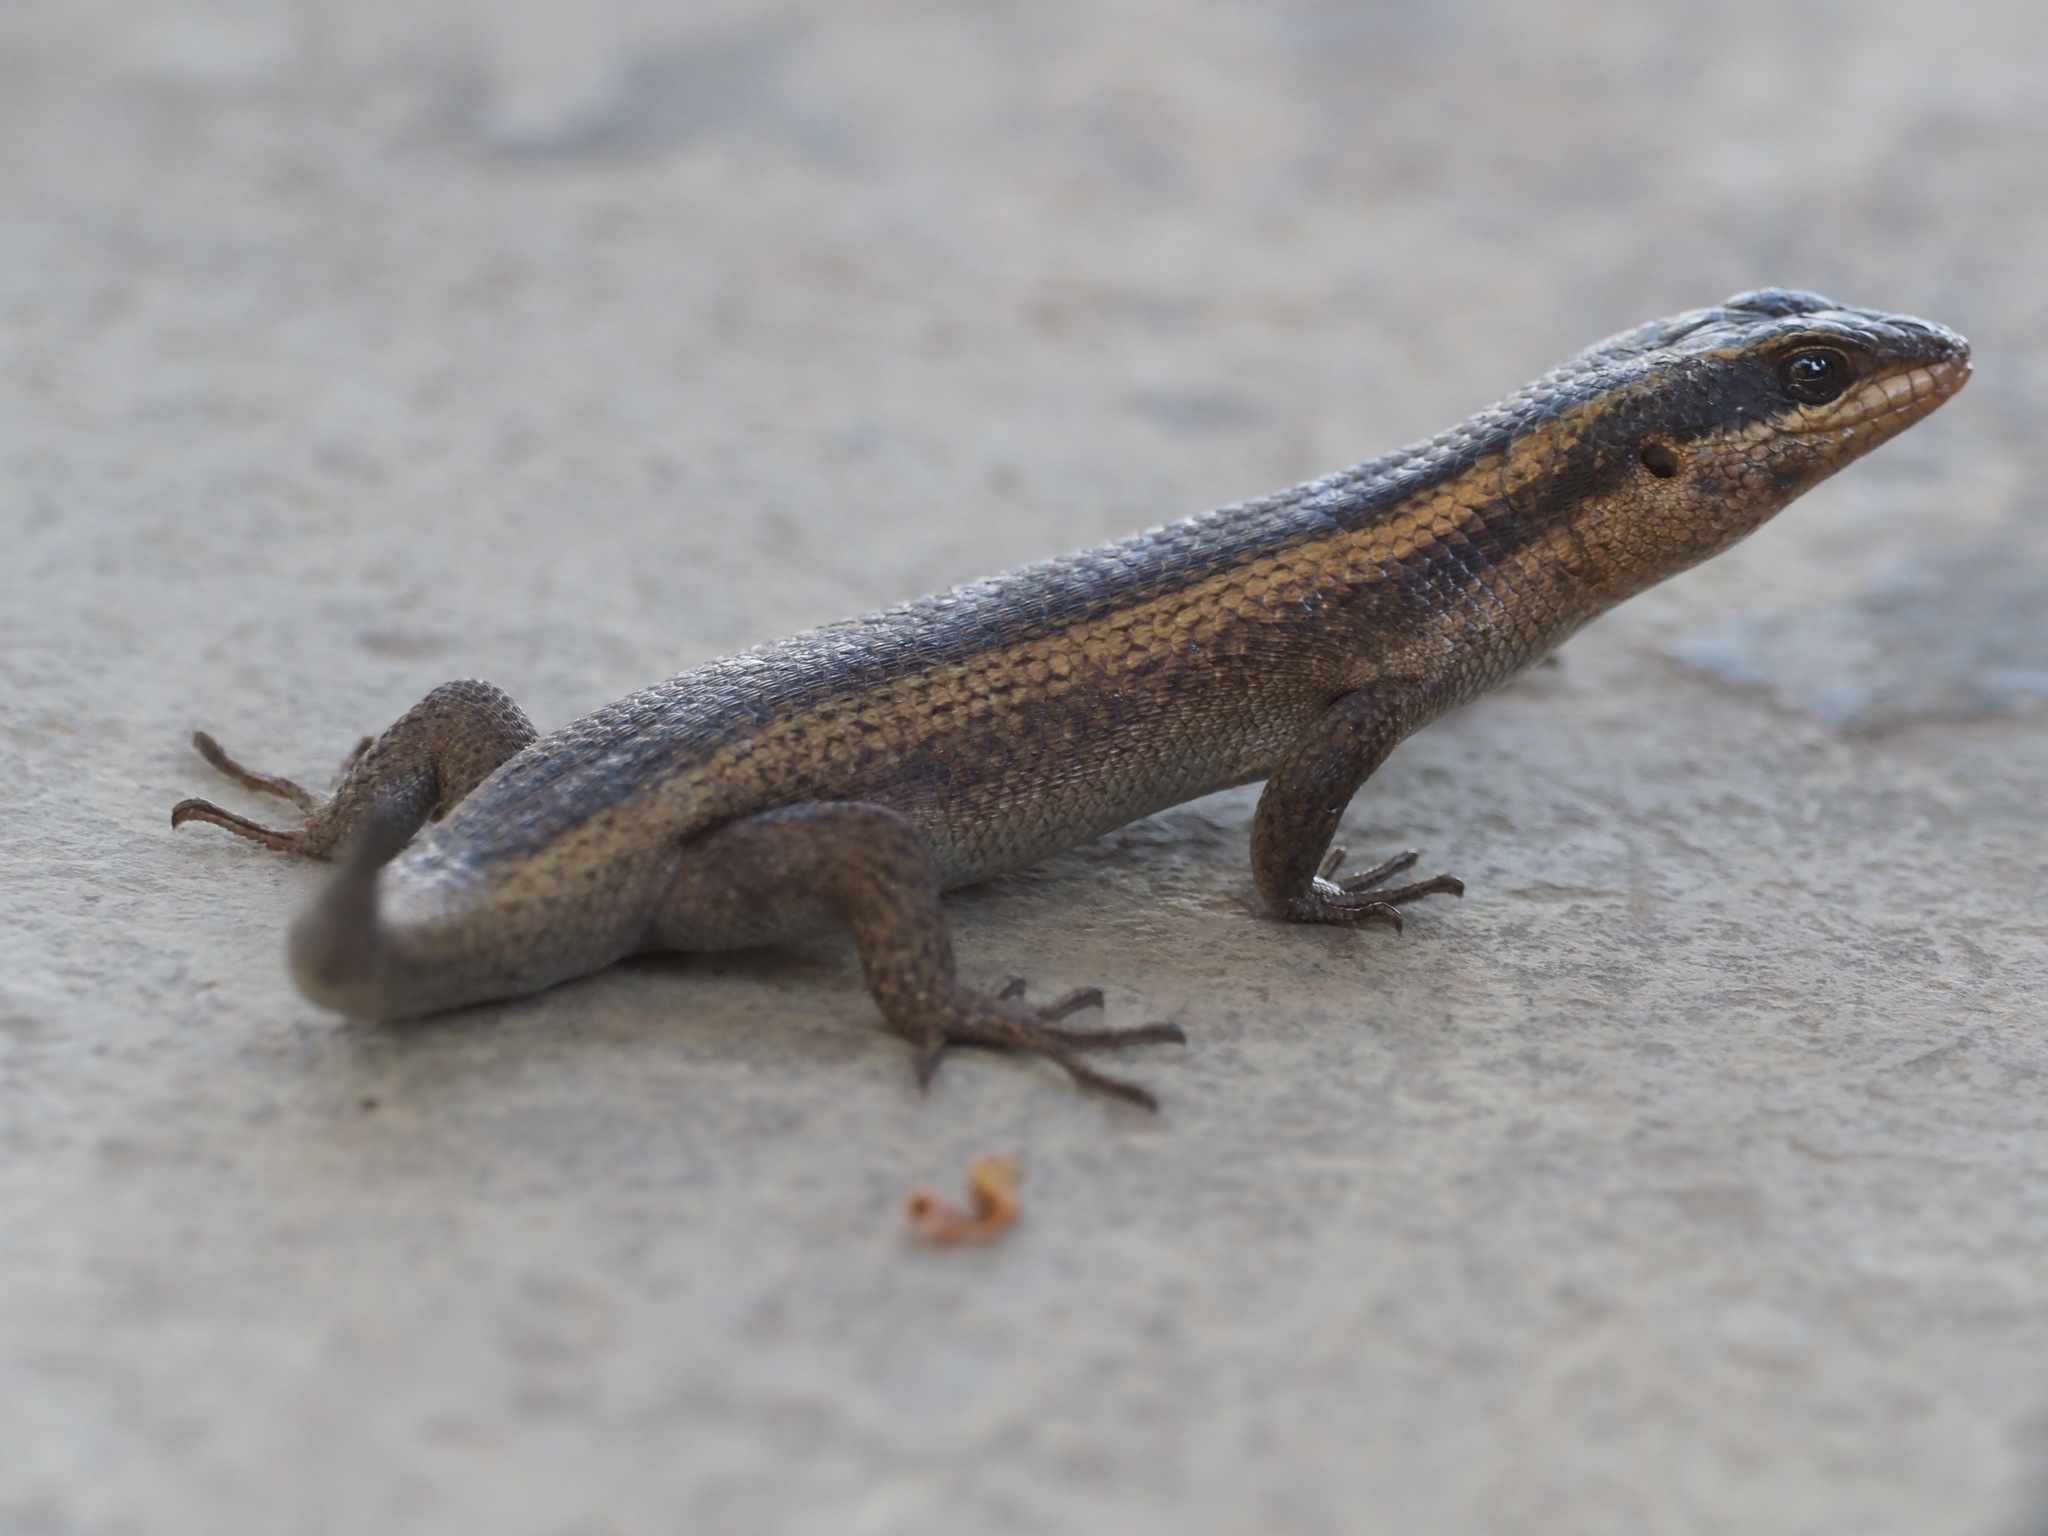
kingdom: Animalia
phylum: Chordata
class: Squamata
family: Scincidae
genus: Trachylepis
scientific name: Trachylepis punctatissima
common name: Montane speckled skink
